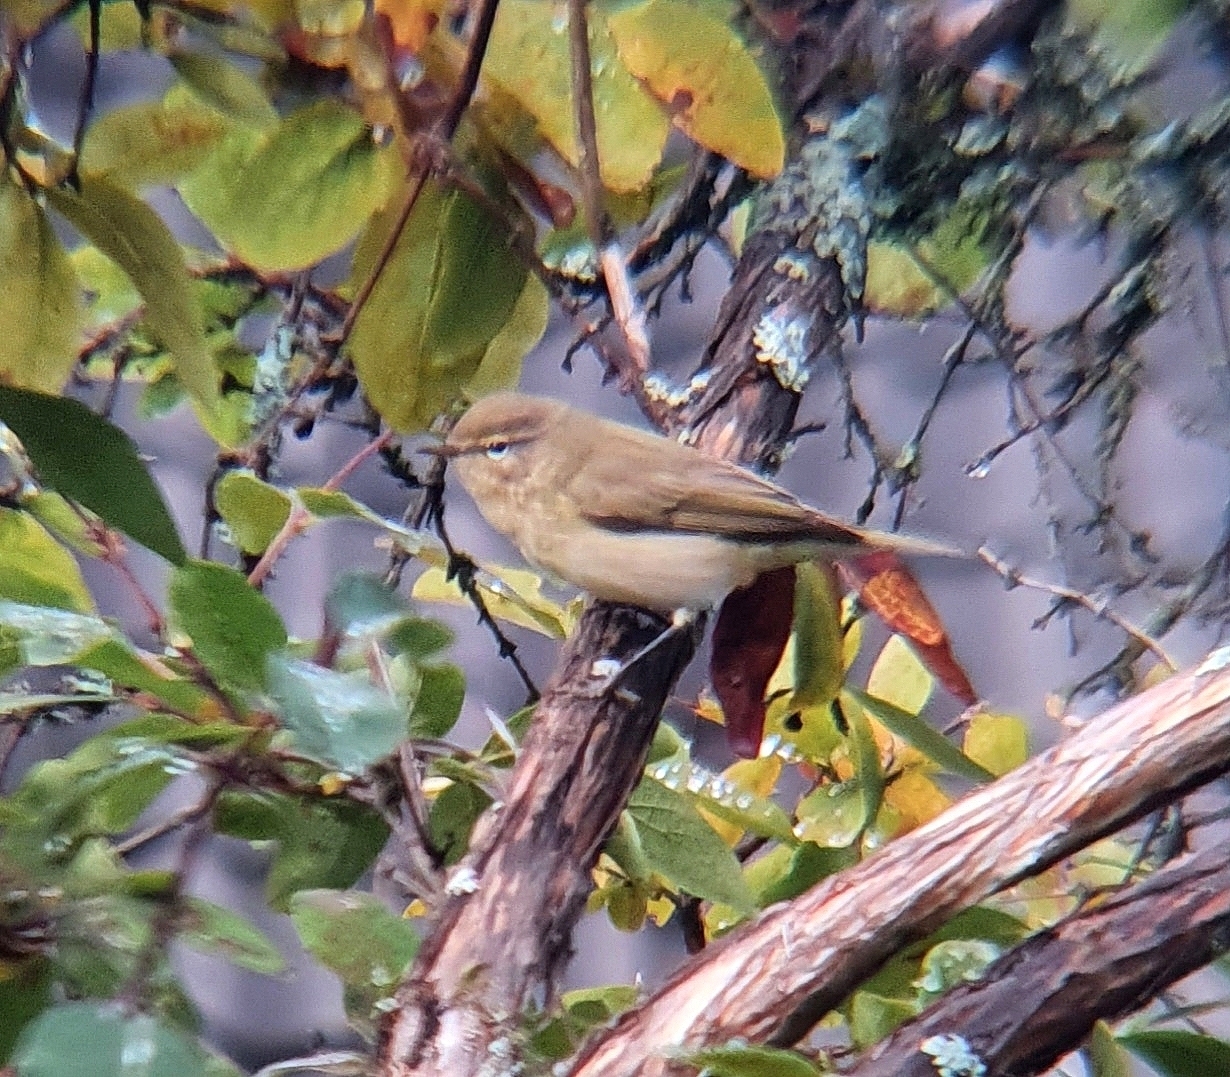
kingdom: Animalia
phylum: Chordata
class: Aves
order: Passeriformes
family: Phylloscopidae
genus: Phylloscopus
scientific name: Phylloscopus collybita
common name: Common chiffchaff
